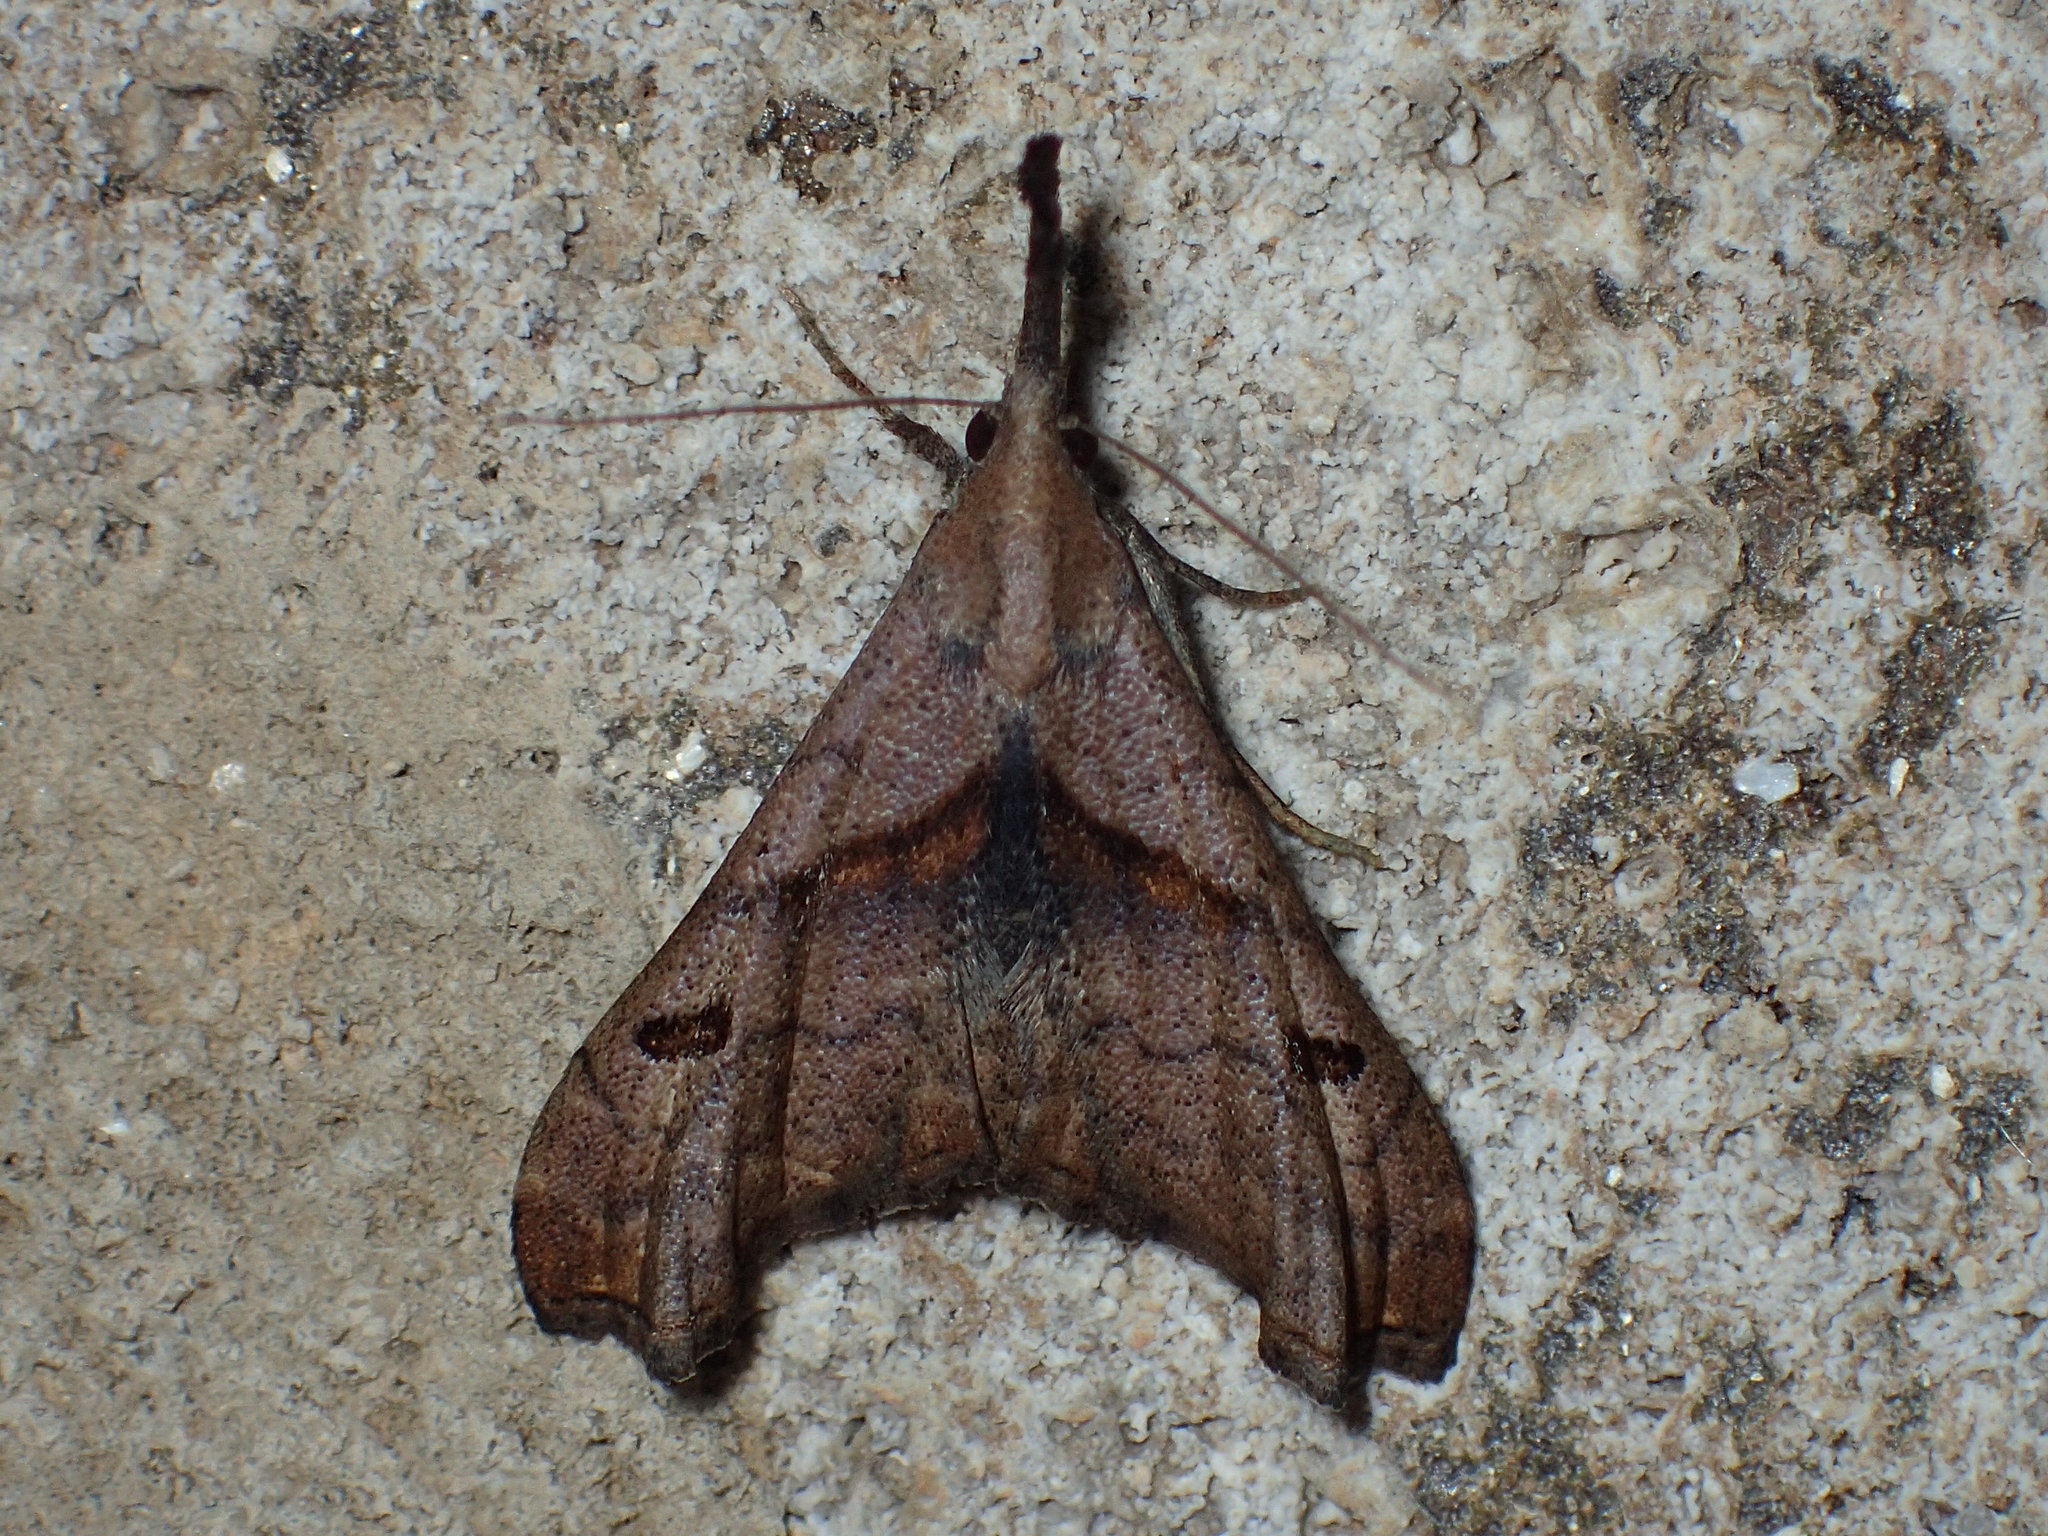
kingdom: Animalia
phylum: Arthropoda
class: Insecta
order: Lepidoptera
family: Erebidae
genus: Palthis
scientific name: Palthis angulalis
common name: Dark-spotted palthis moth
